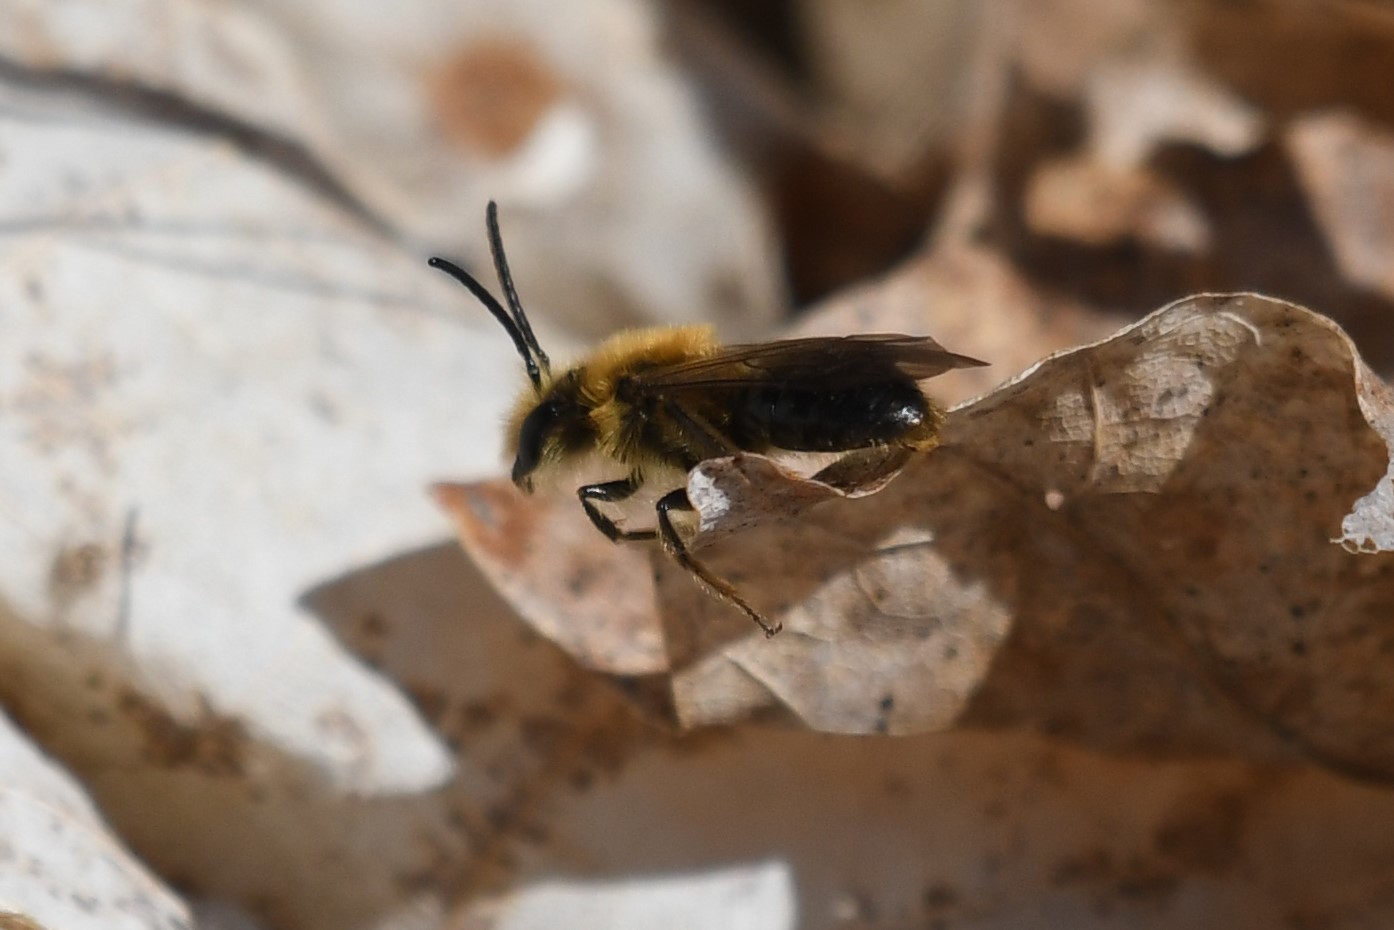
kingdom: Animalia
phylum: Arthropoda
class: Insecta
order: Hymenoptera
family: Andrenidae
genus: Andrena
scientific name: Andrena dunningi
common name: Dunning's miner
